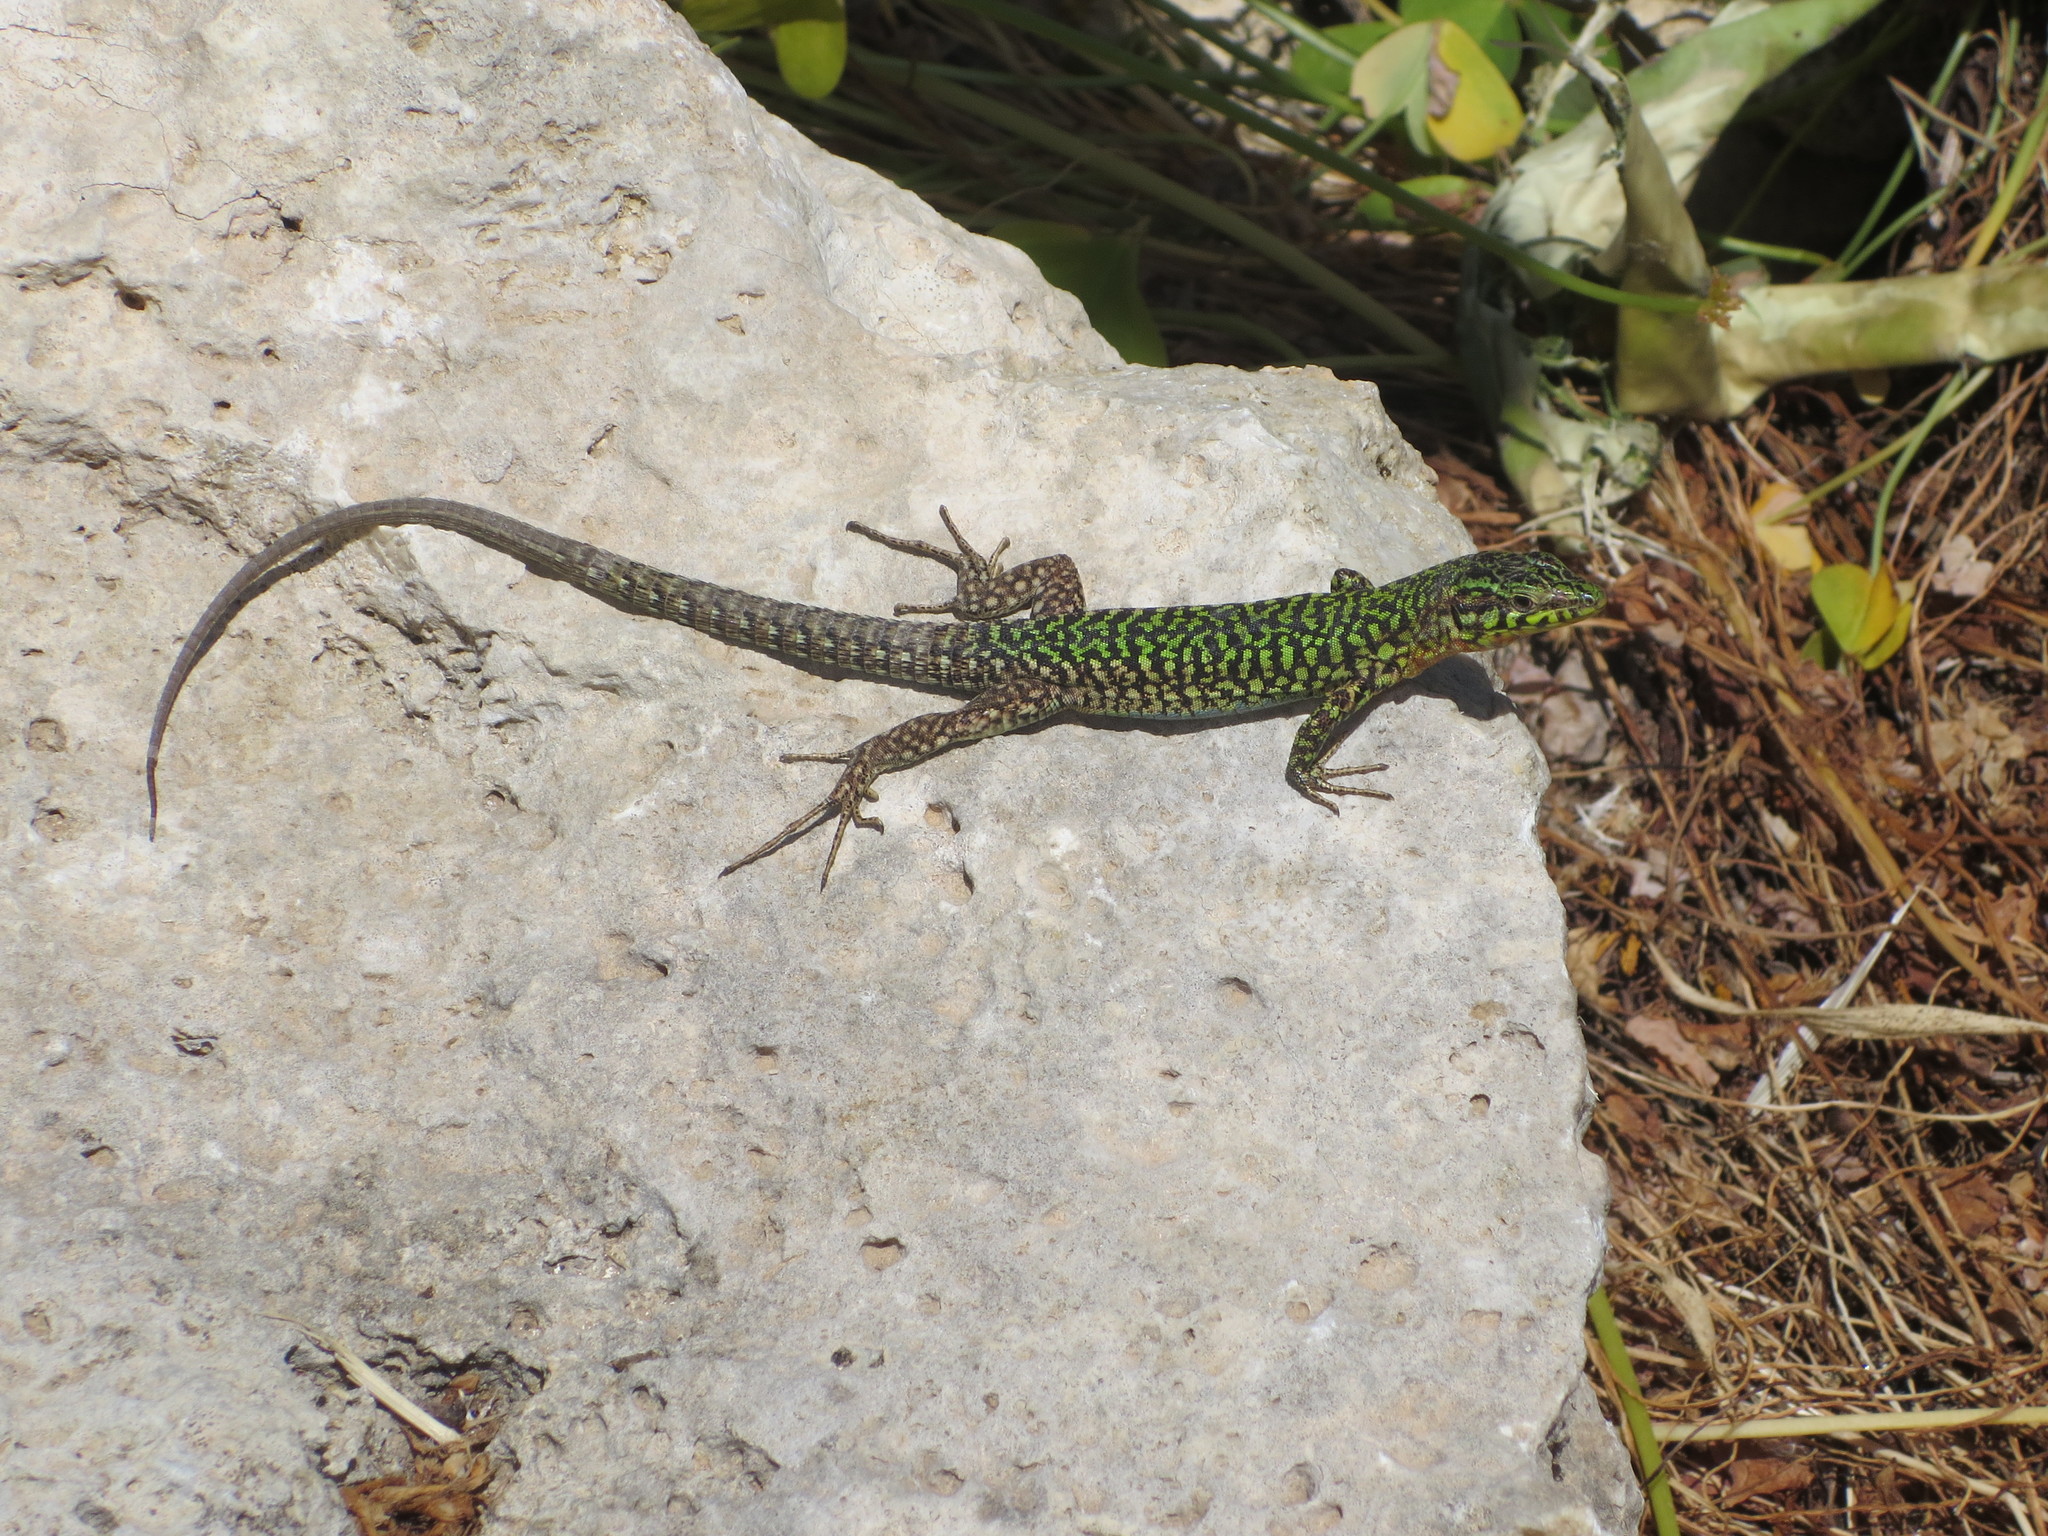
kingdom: Animalia
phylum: Chordata
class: Squamata
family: Lacertidae
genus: Podarcis
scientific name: Podarcis filfolensis
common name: Maltese wall lizard
